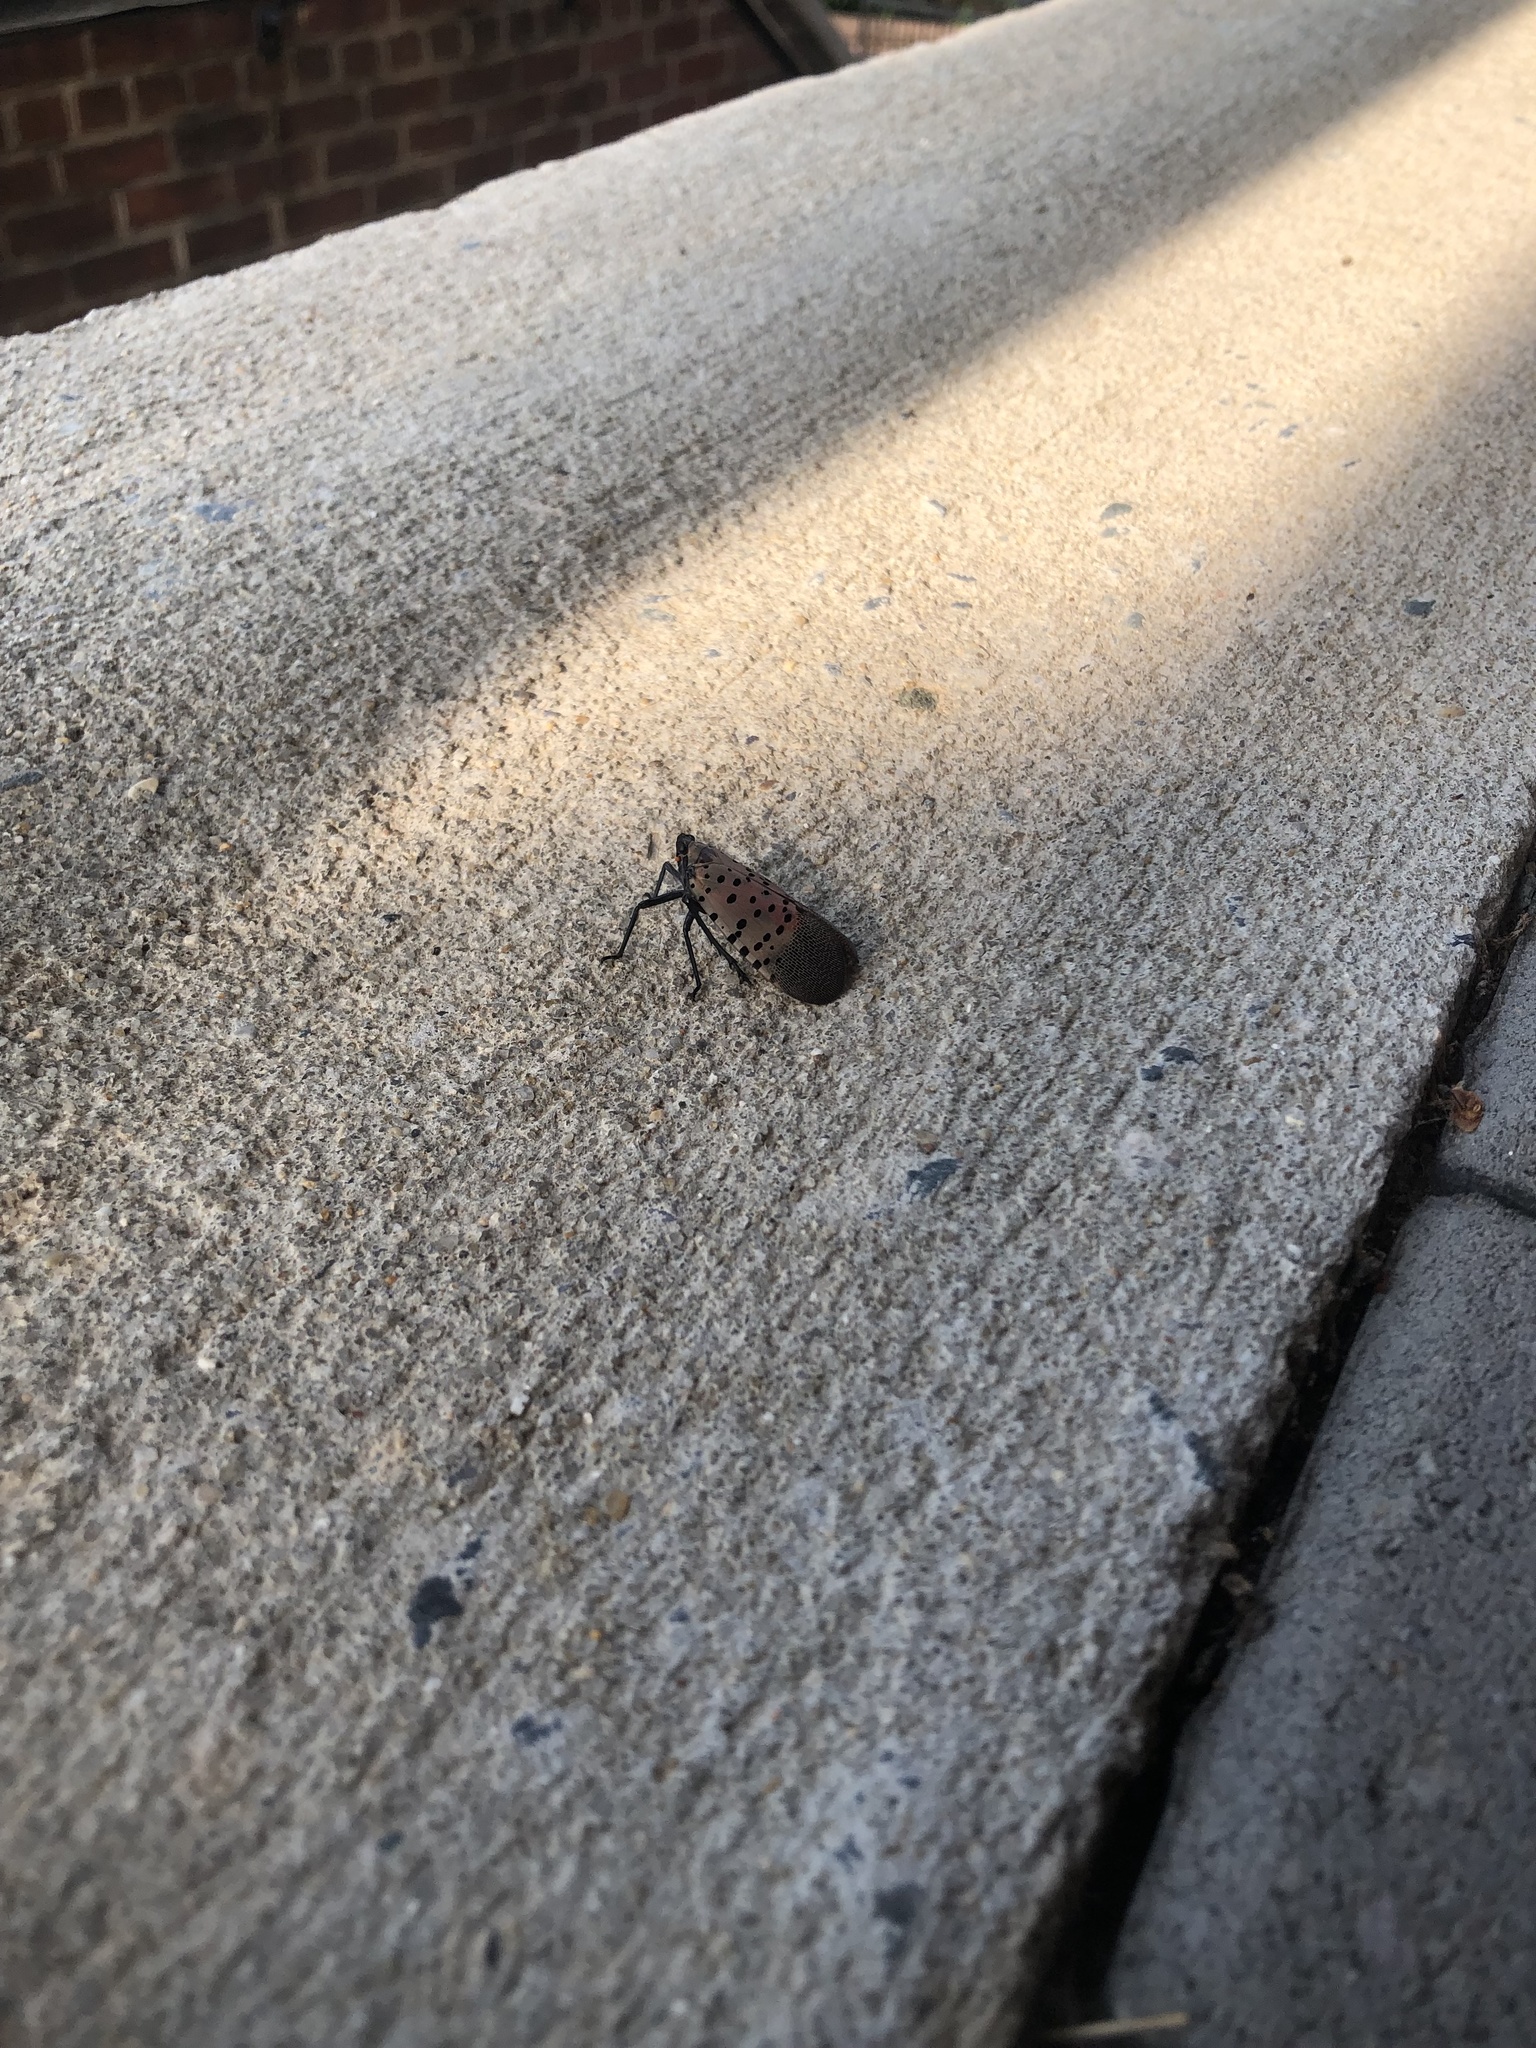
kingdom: Animalia
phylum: Arthropoda
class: Insecta
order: Hemiptera
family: Fulgoridae
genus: Lycorma
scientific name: Lycorma delicatula
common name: Spotted lanternfly
